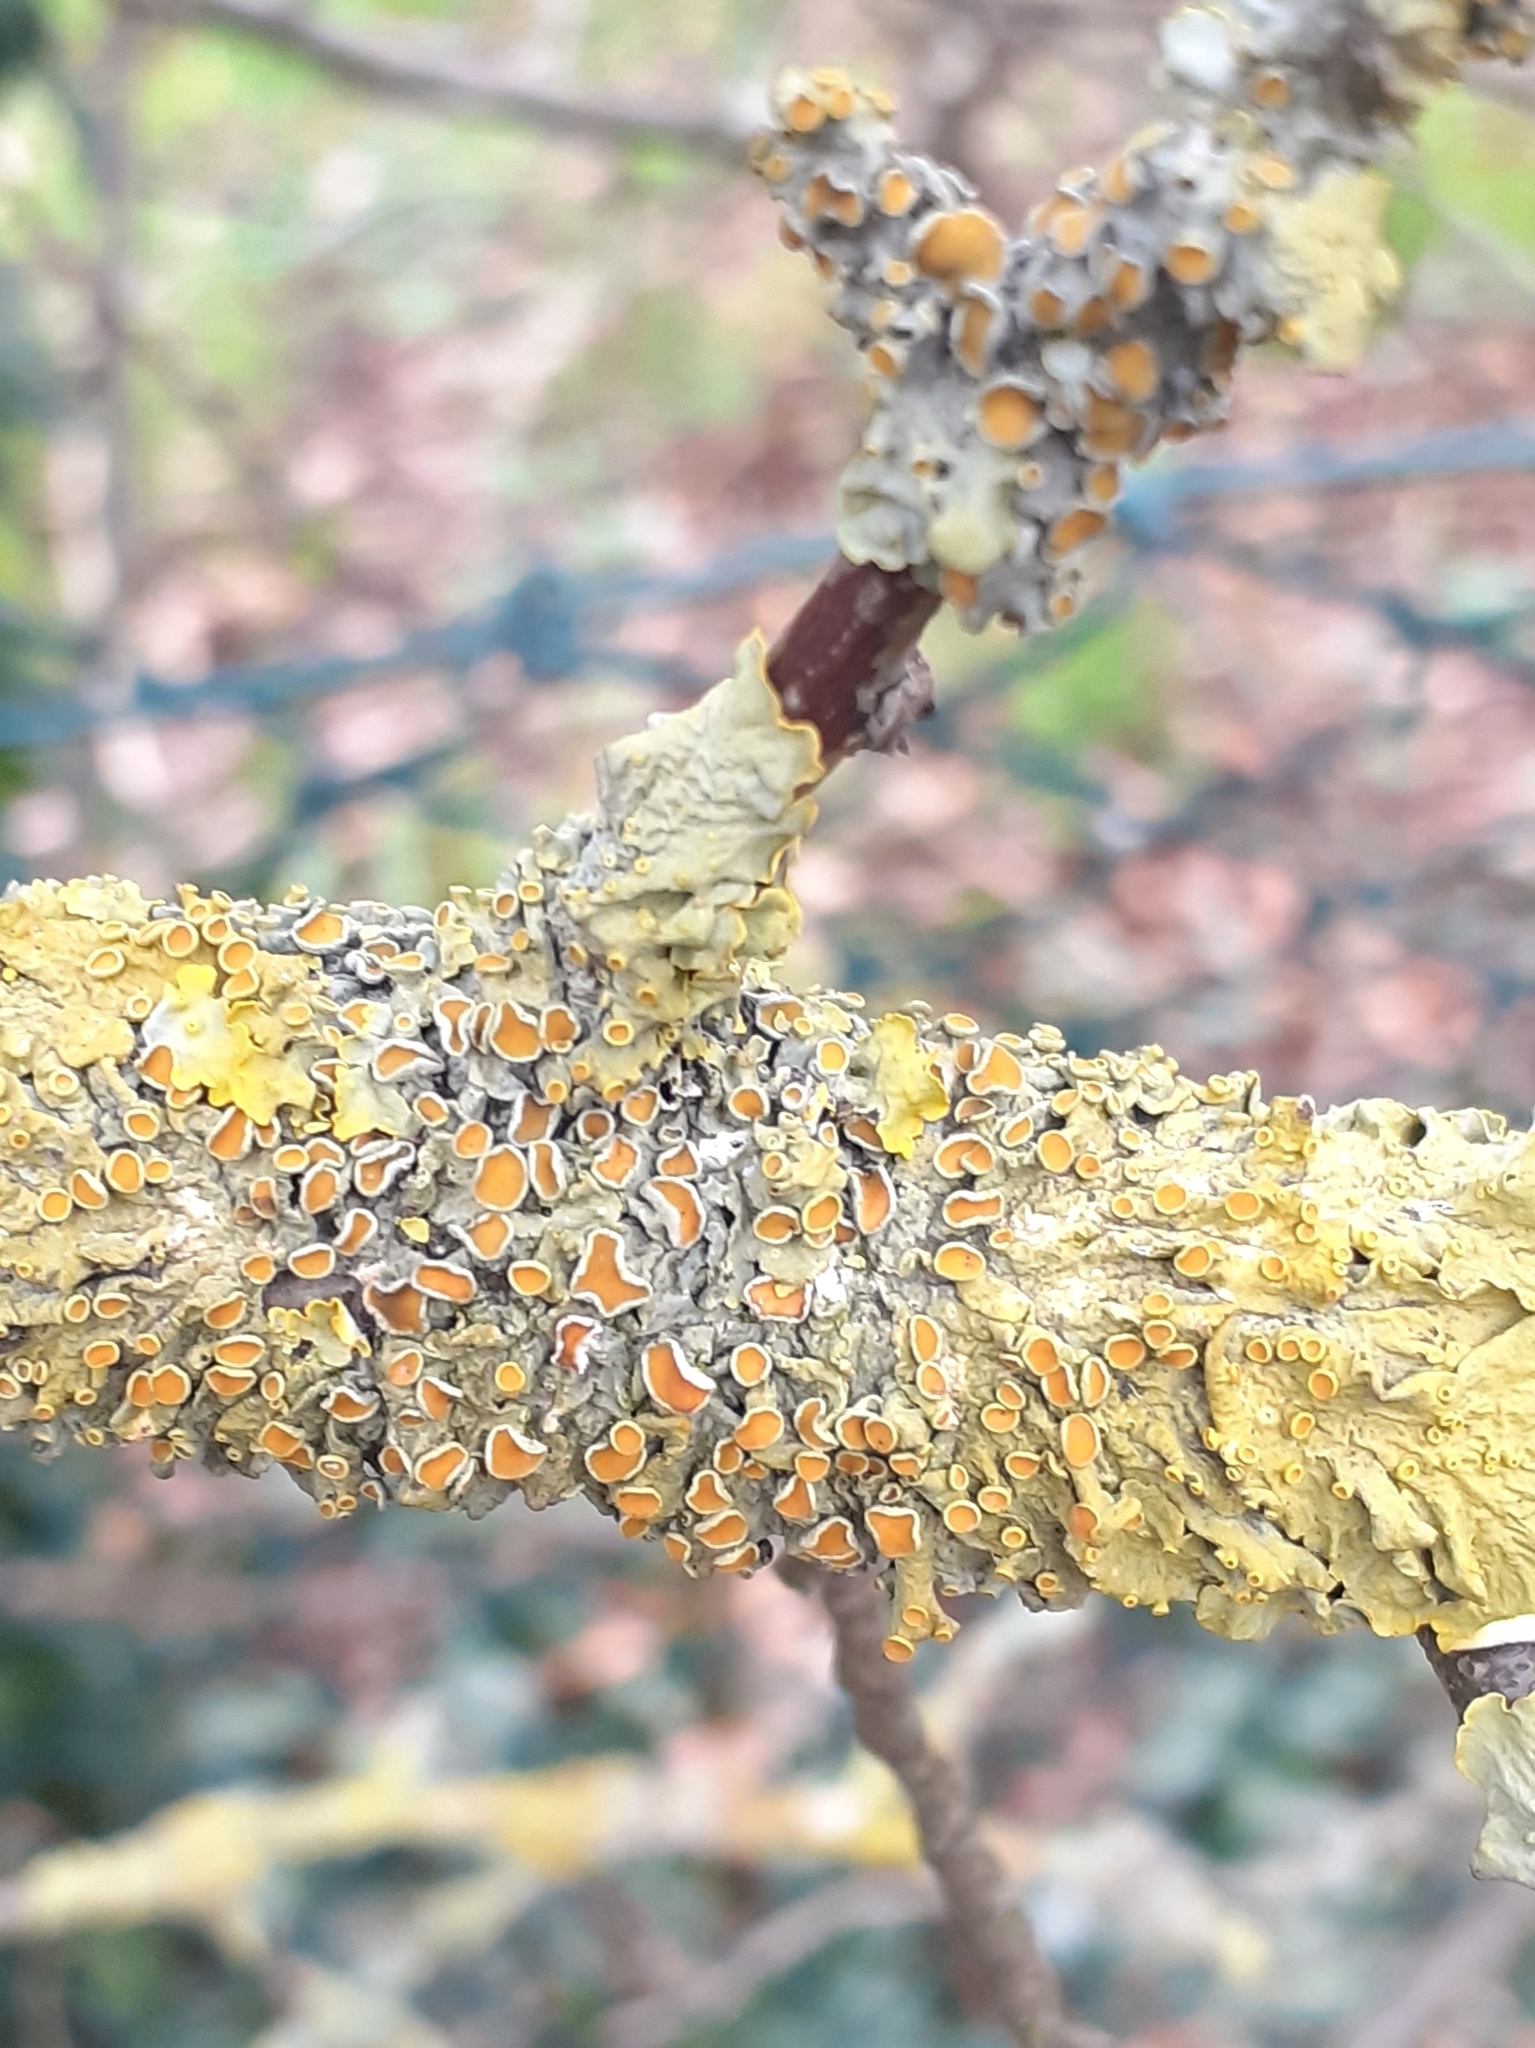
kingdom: Fungi
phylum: Ascomycota
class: Lecanoromycetes
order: Teloschistales
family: Teloschistaceae
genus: Xanthoria
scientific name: Xanthoria parietina
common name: Common orange lichen
